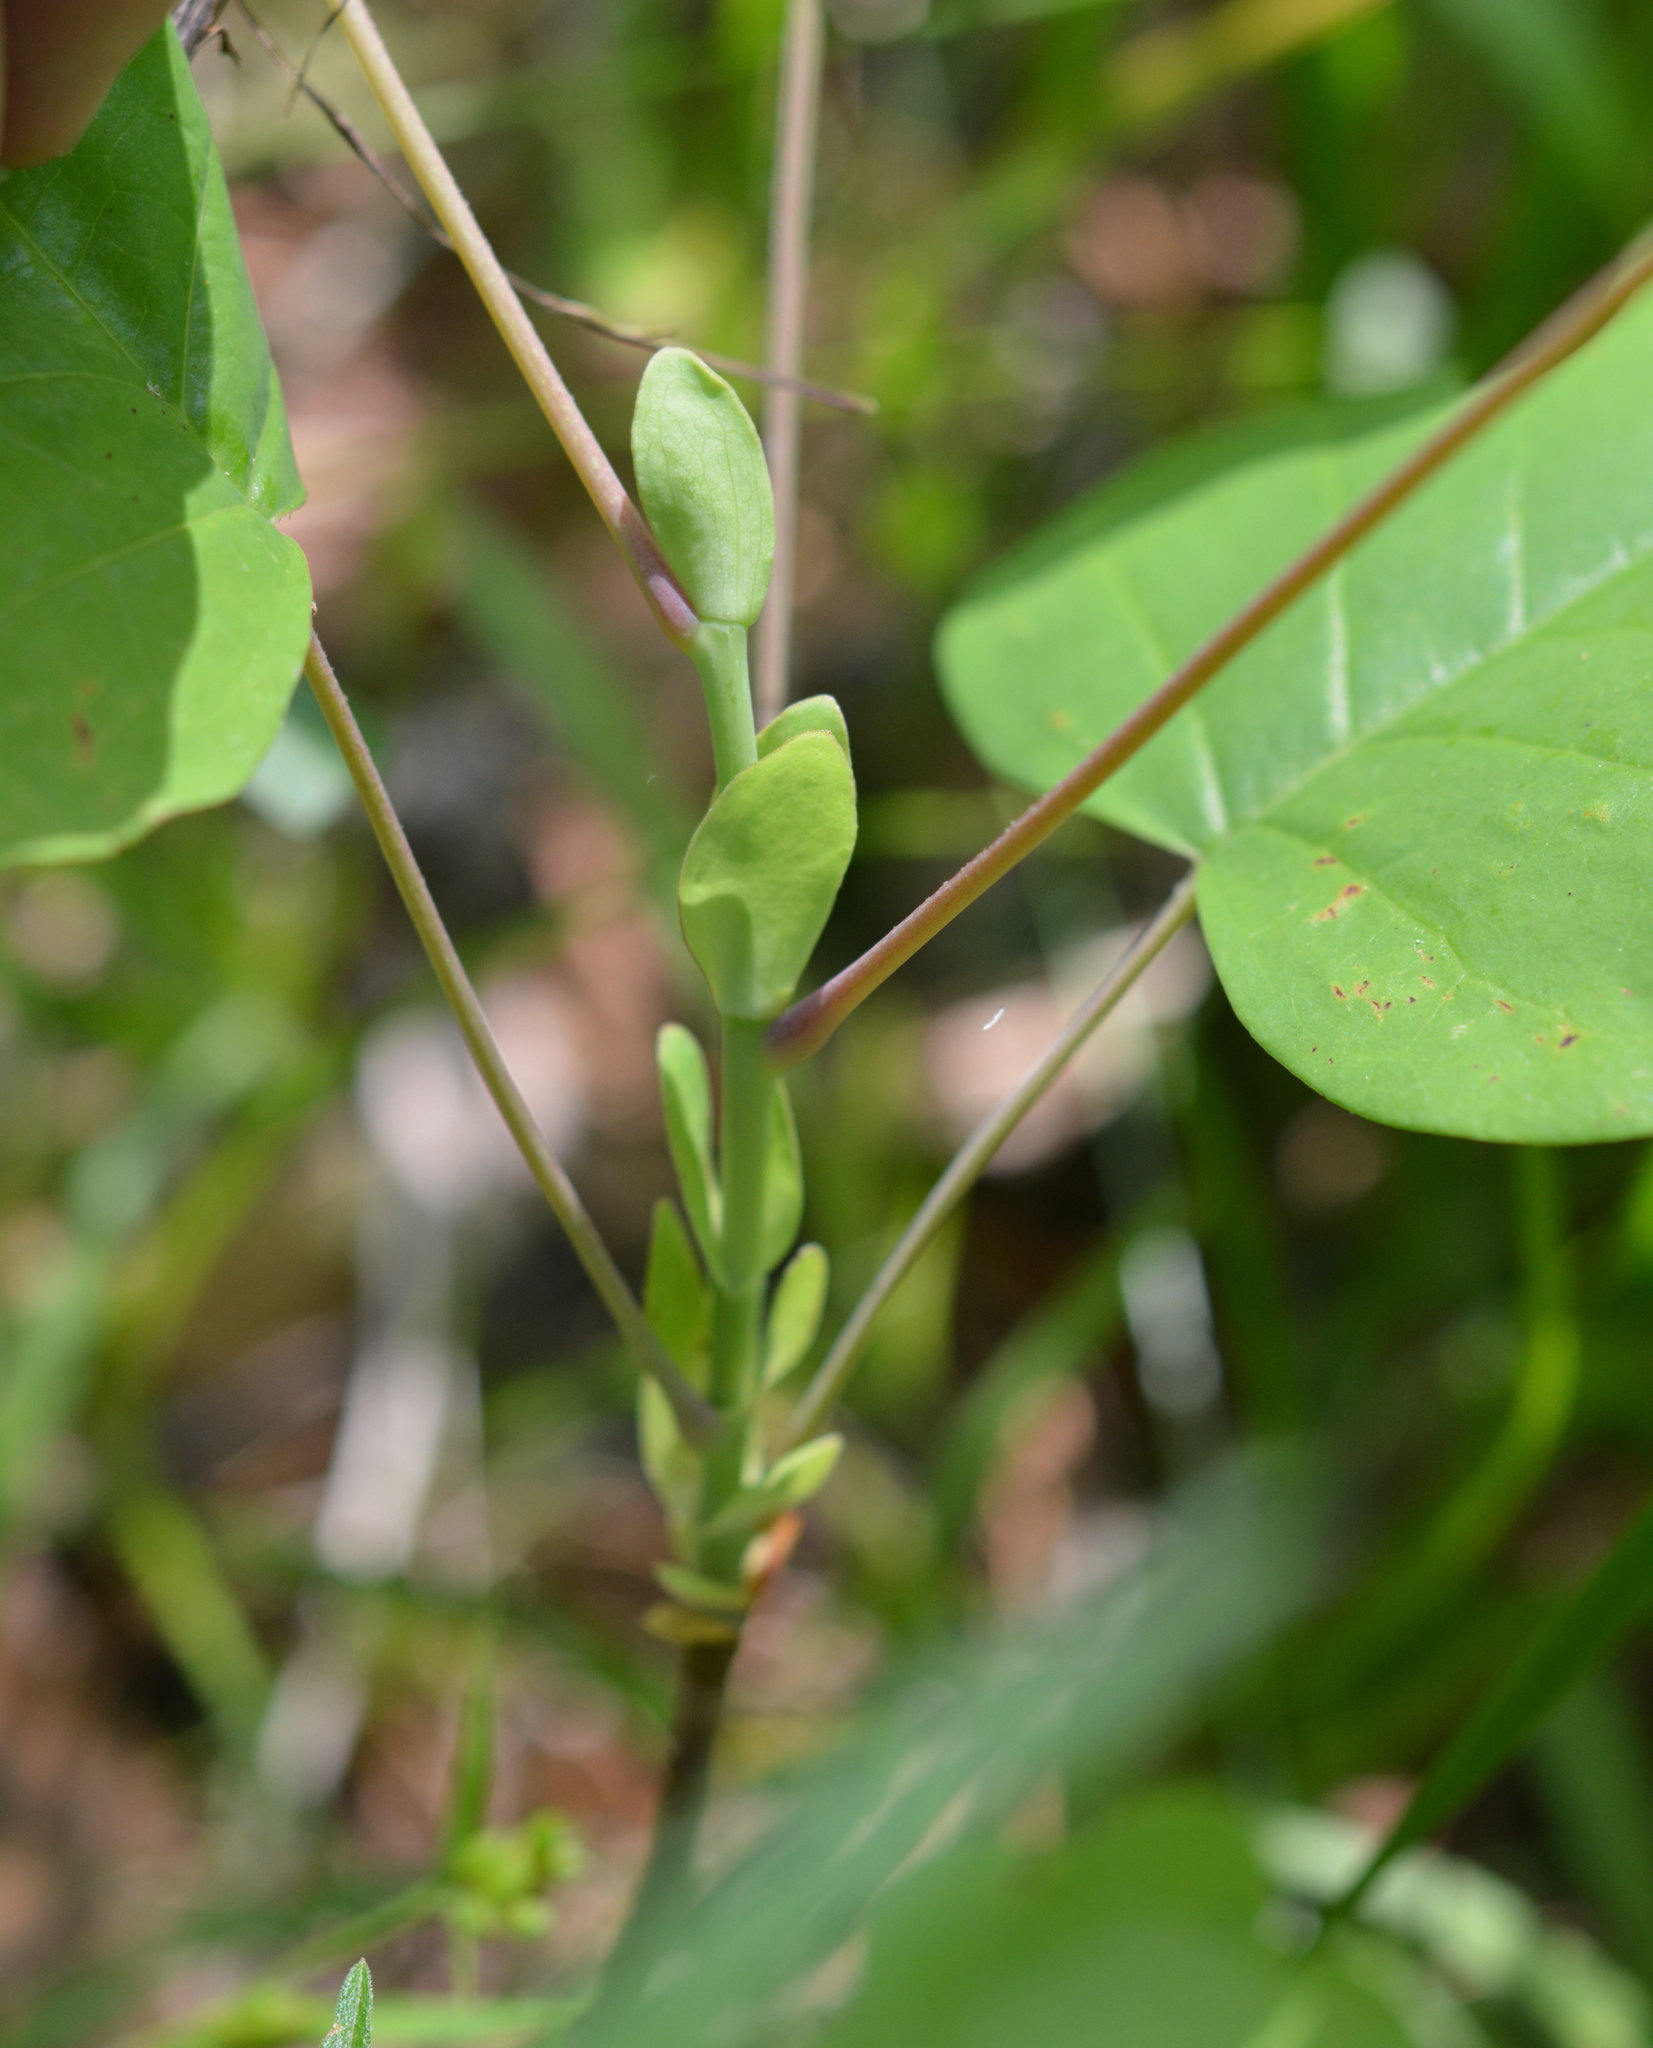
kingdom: Plantae
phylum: Tracheophyta
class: Magnoliopsida
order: Magnoliales
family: Magnoliaceae
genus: Liriodendron
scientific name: Liriodendron tulipifera
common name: Tulip tree
